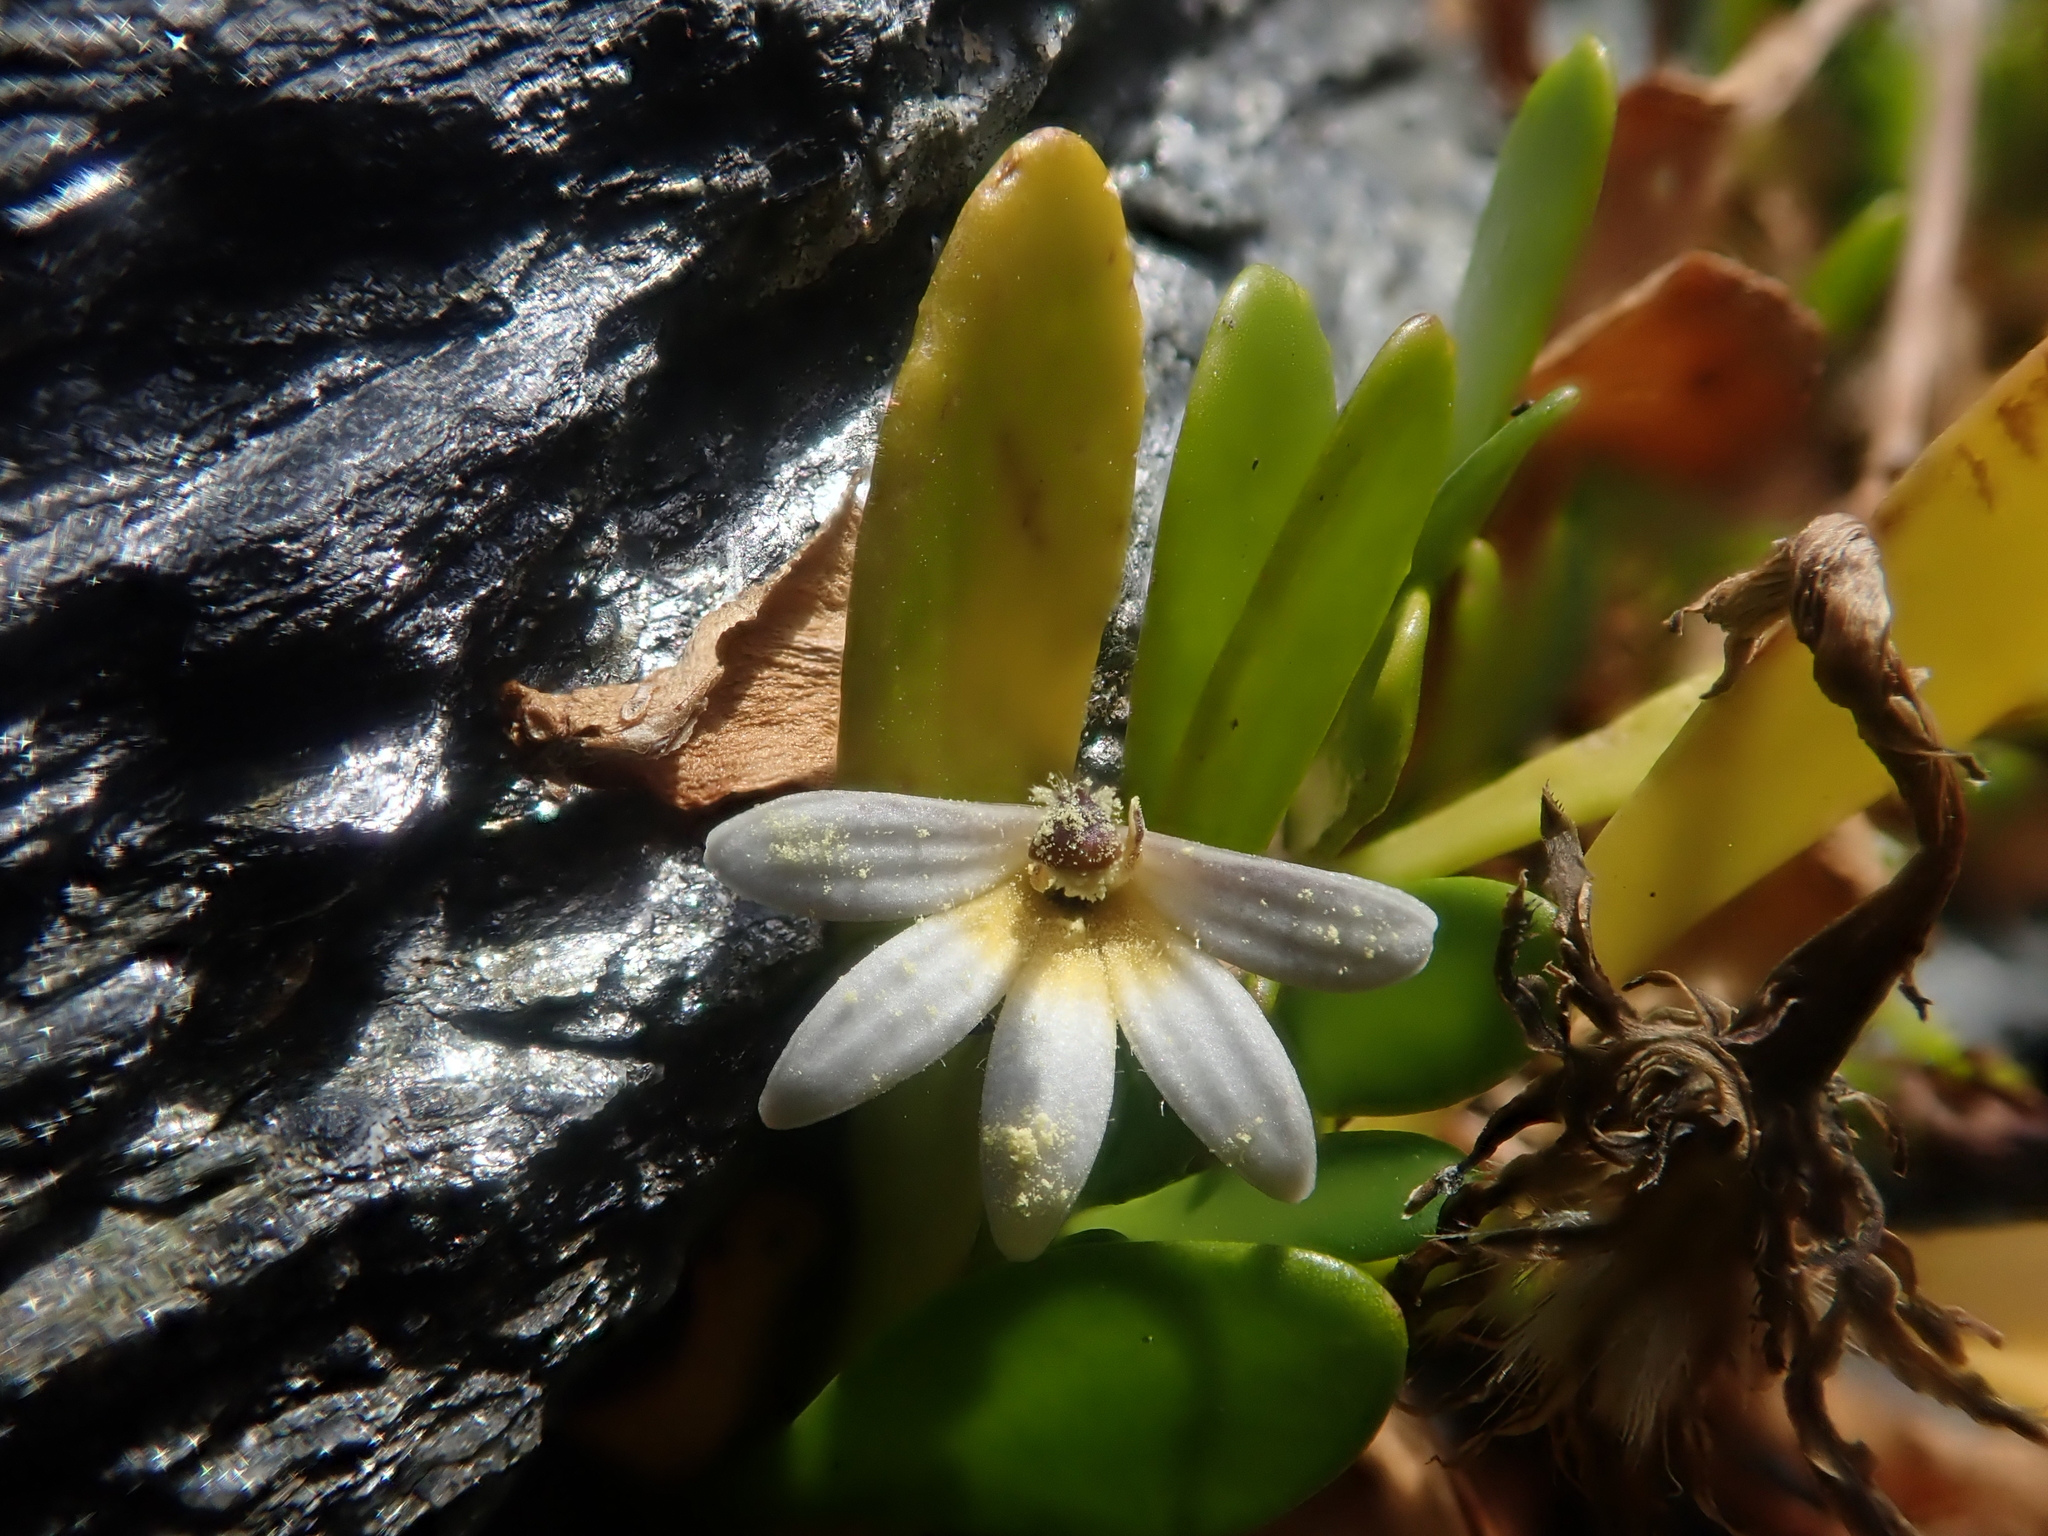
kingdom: Plantae
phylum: Tracheophyta
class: Magnoliopsida
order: Asterales
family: Goodeniaceae
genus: Goodenia
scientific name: Goodenia radicans
